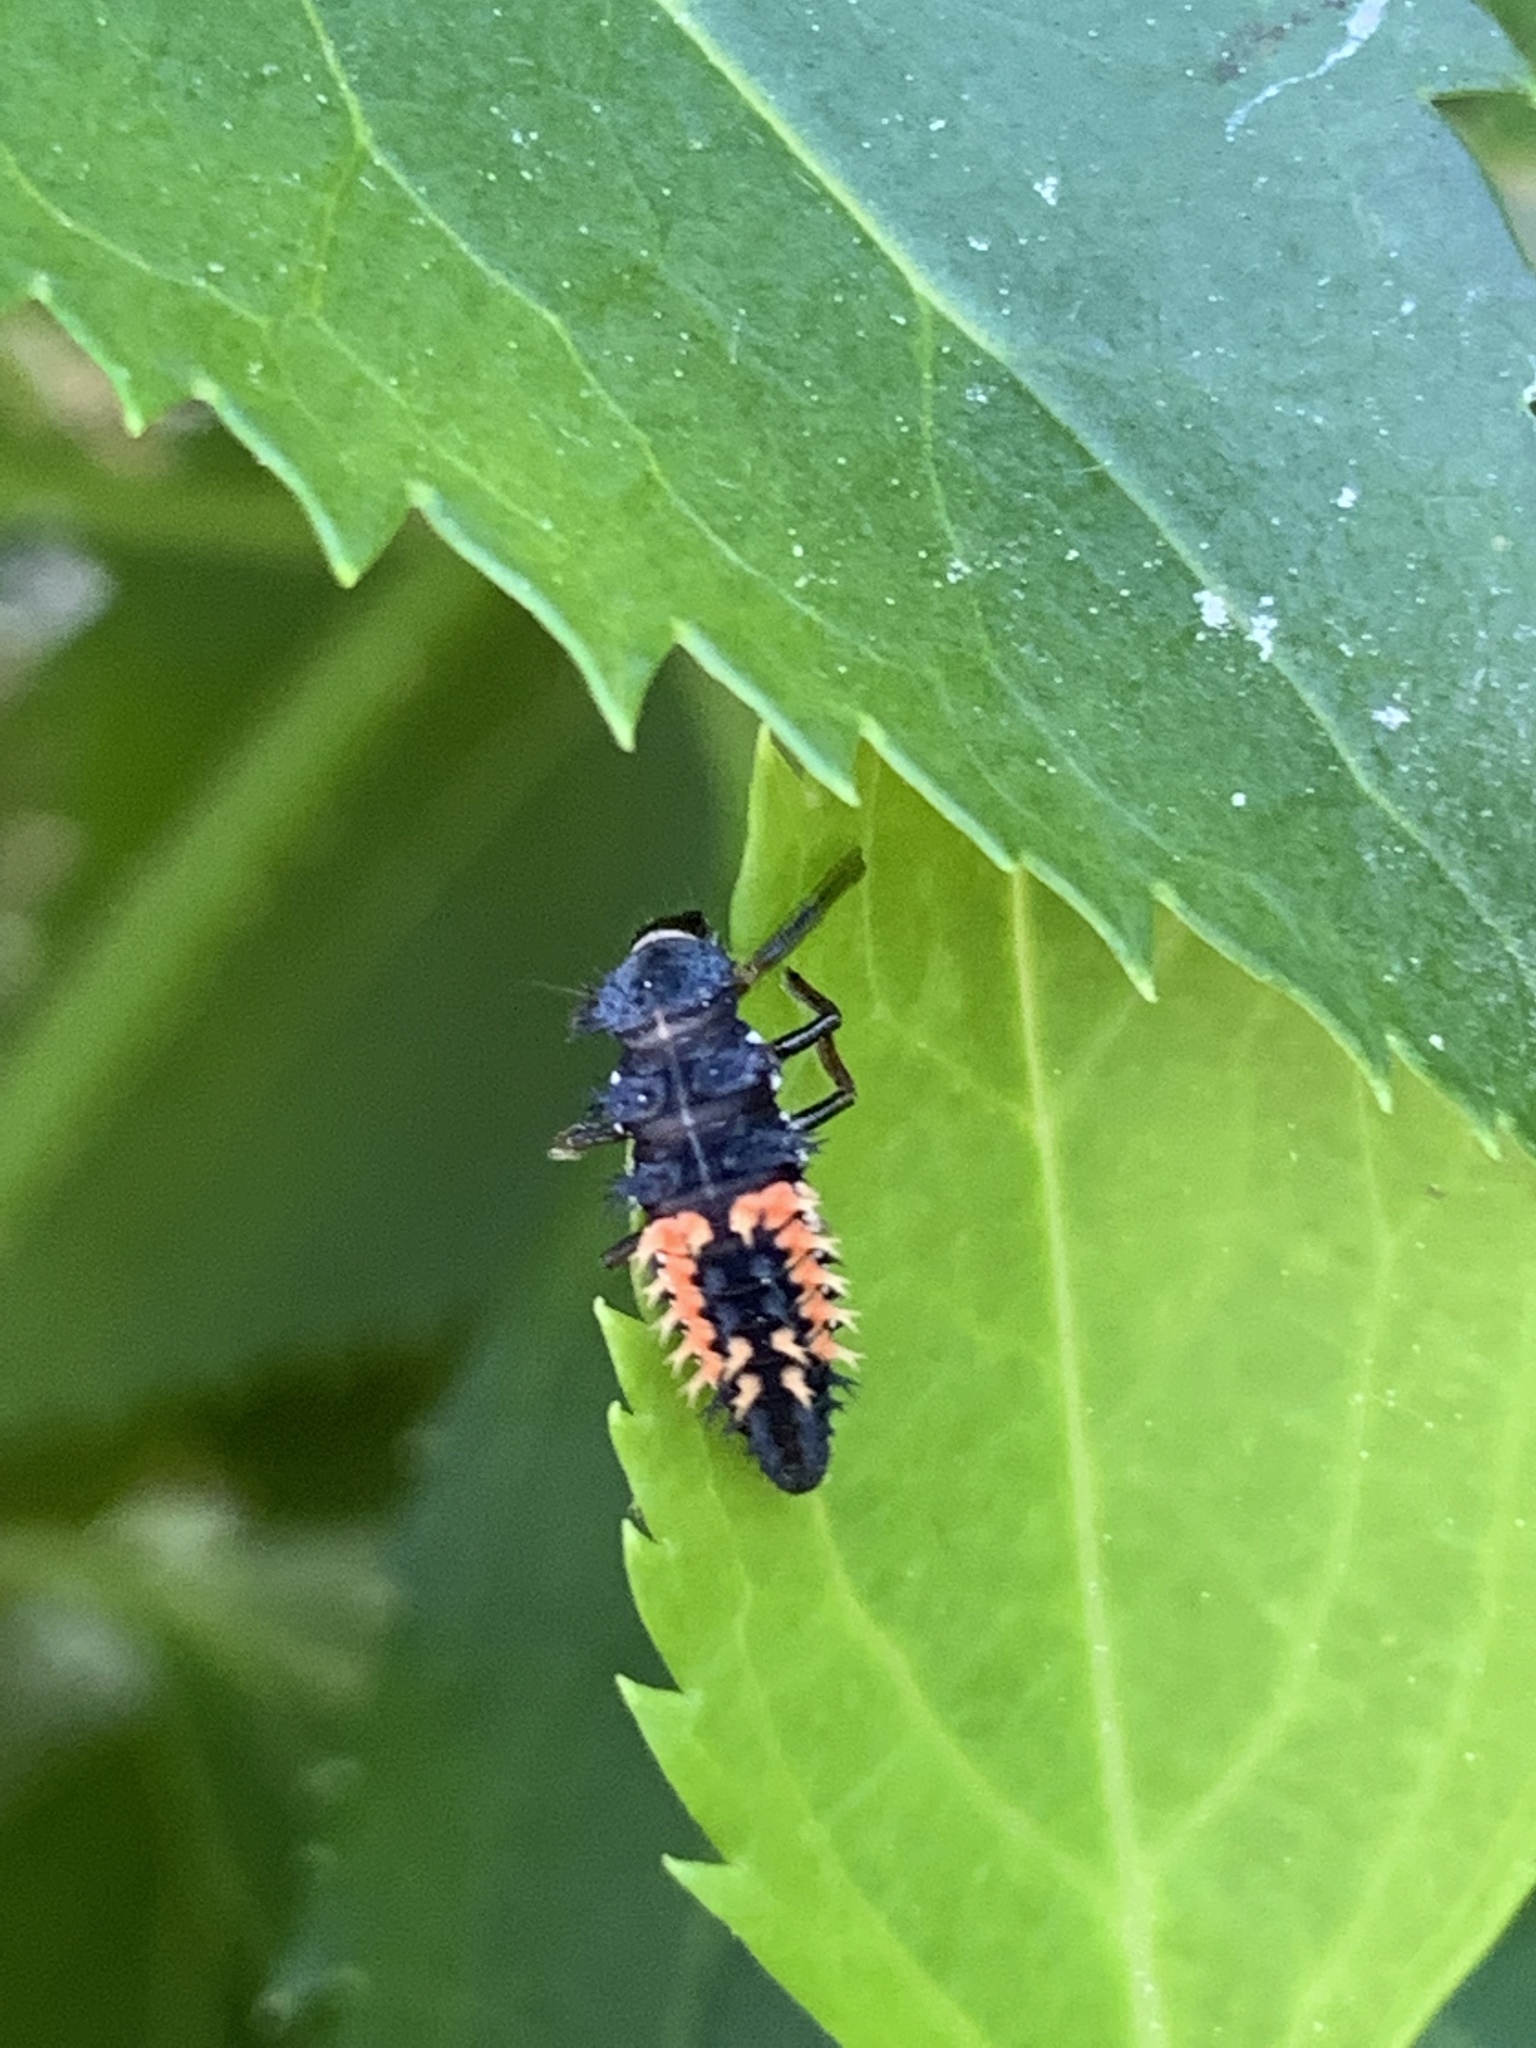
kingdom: Animalia
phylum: Arthropoda
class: Insecta
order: Coleoptera
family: Coccinellidae
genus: Harmonia
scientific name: Harmonia axyridis
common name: Harlequin ladybird
